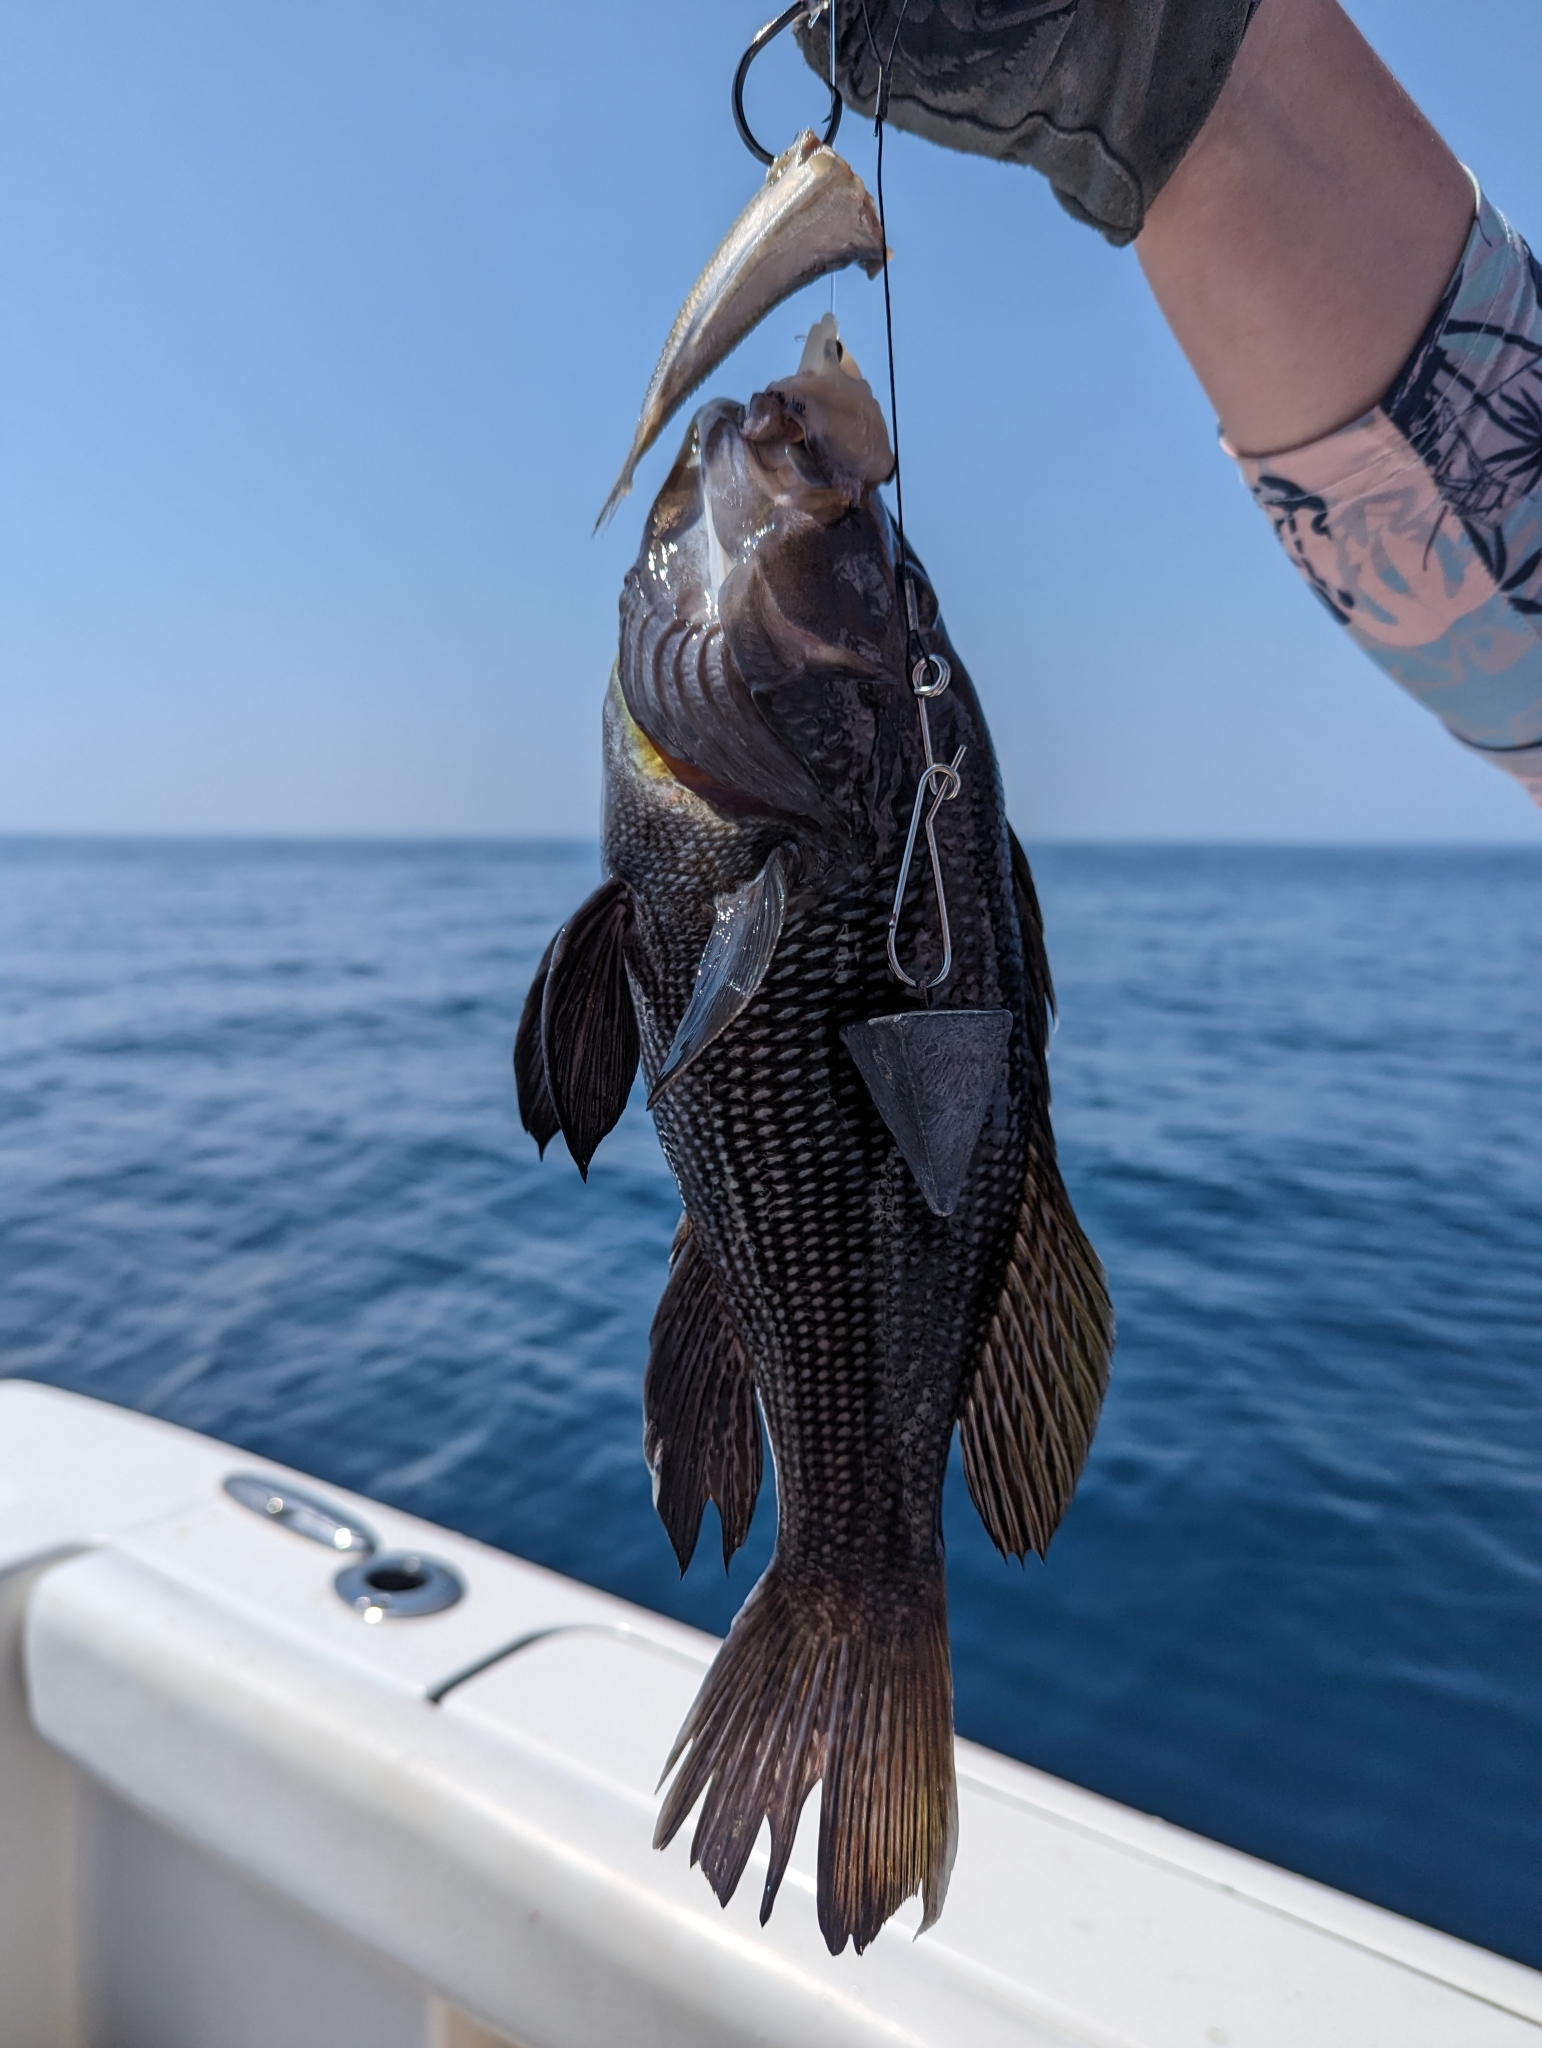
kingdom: Animalia
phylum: Chordata
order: Perciformes
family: Serranidae
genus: Centropristis
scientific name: Centropristis striata
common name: Black sea bass
